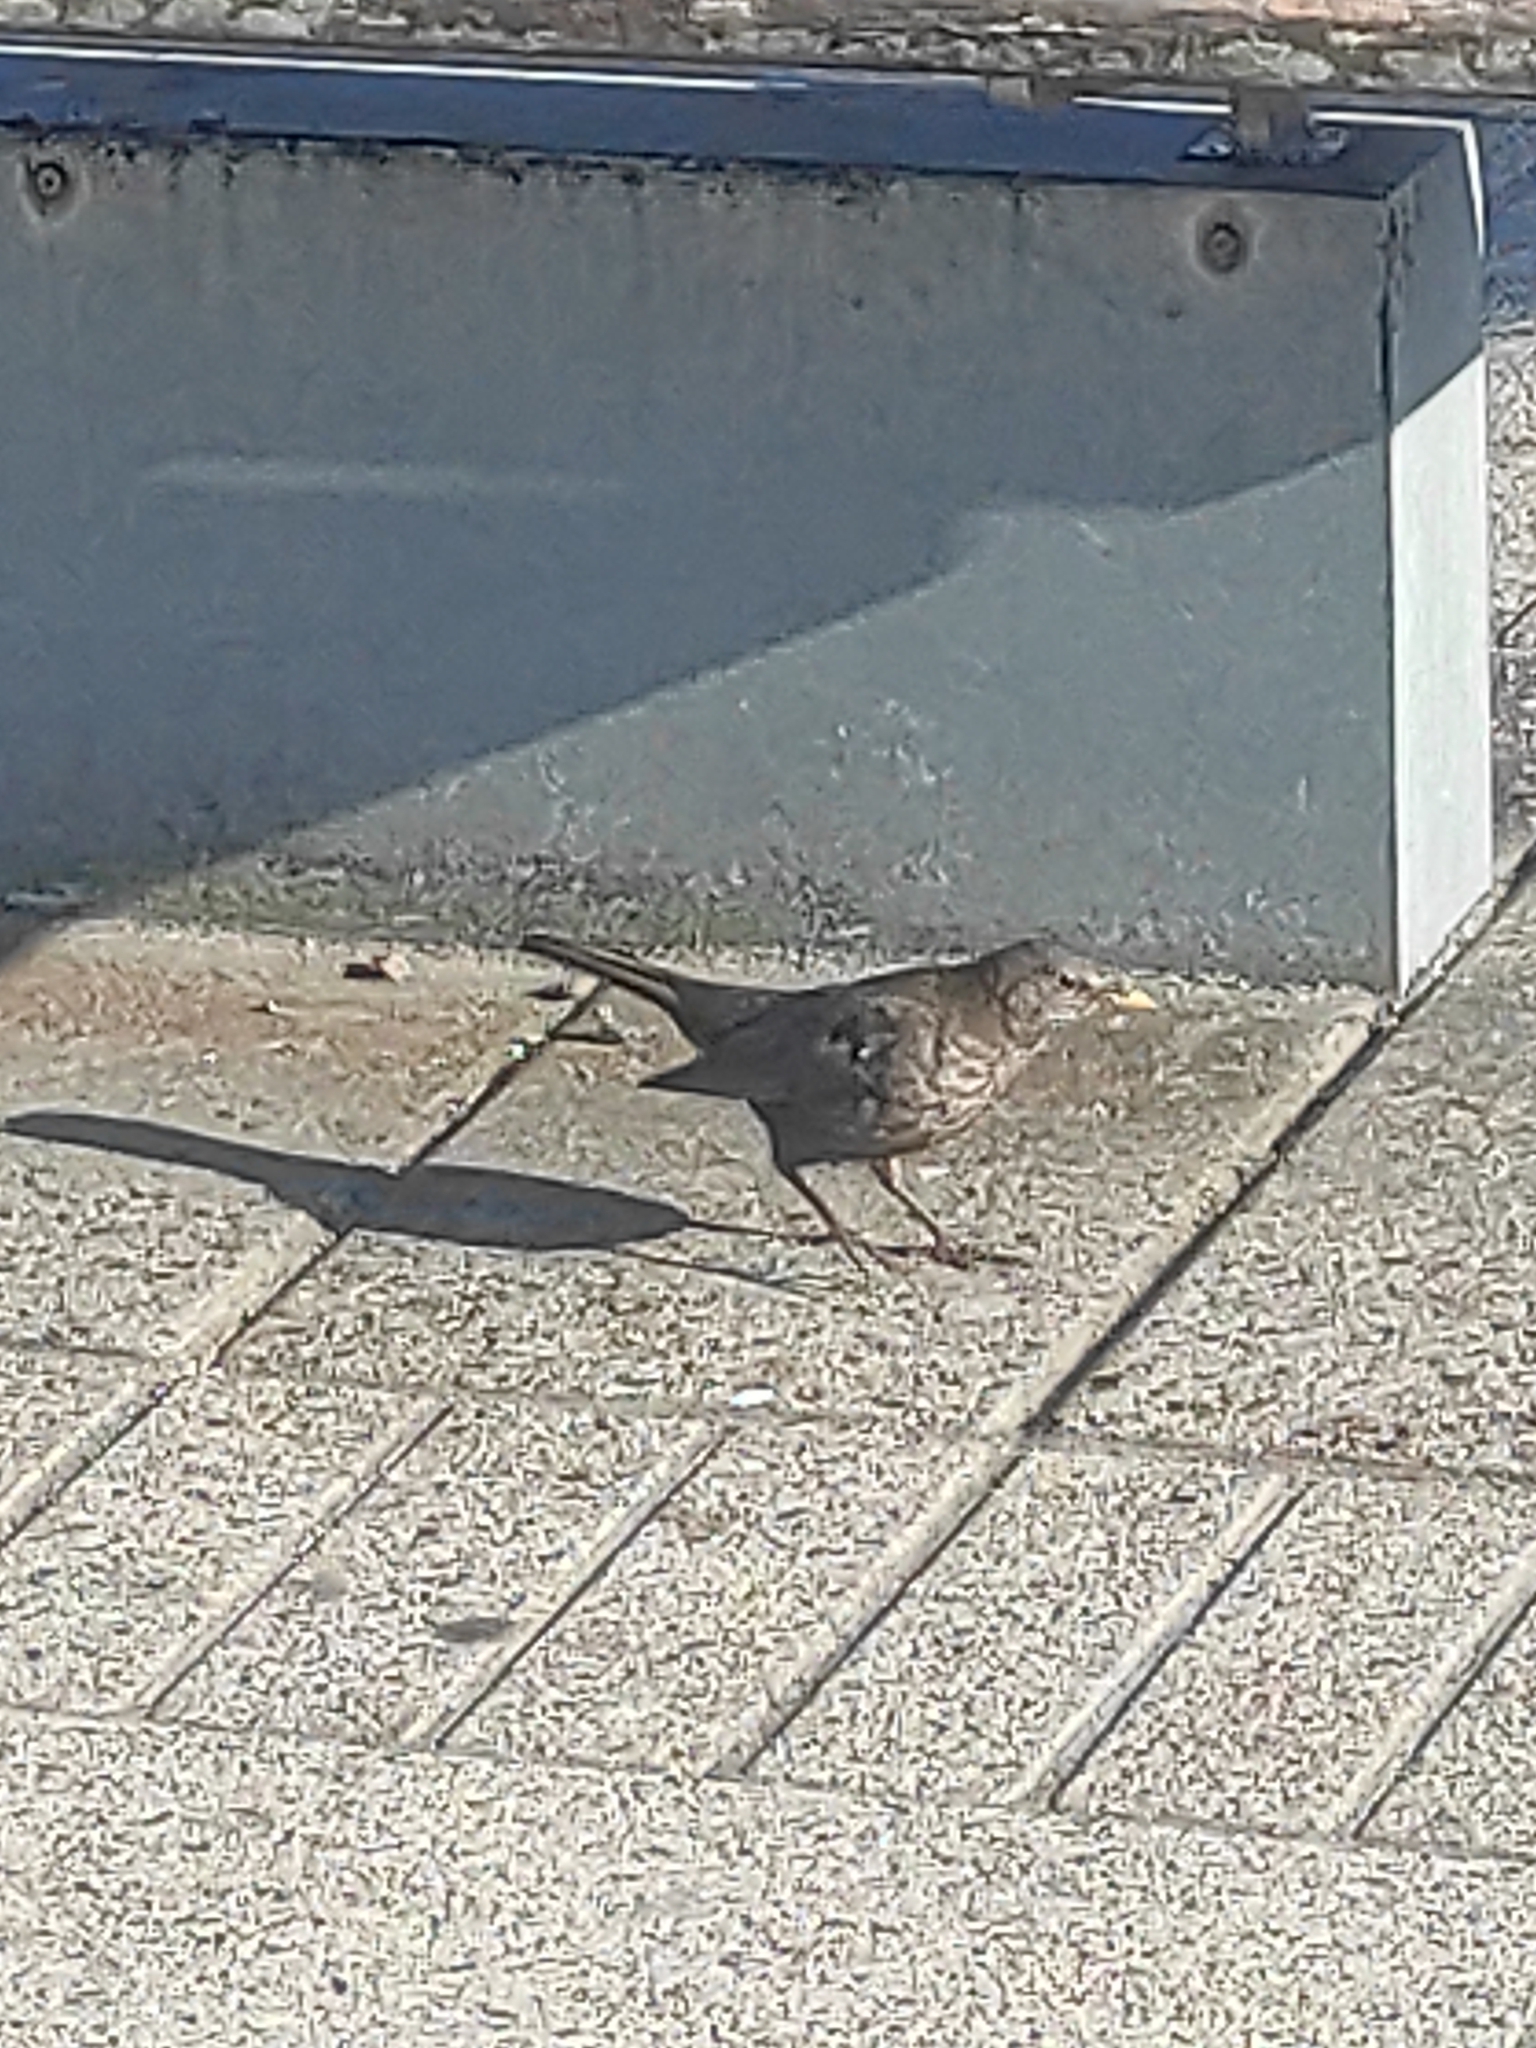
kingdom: Animalia
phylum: Chordata
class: Aves
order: Passeriformes
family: Turdidae
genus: Turdus
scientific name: Turdus merula
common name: Common blackbird
